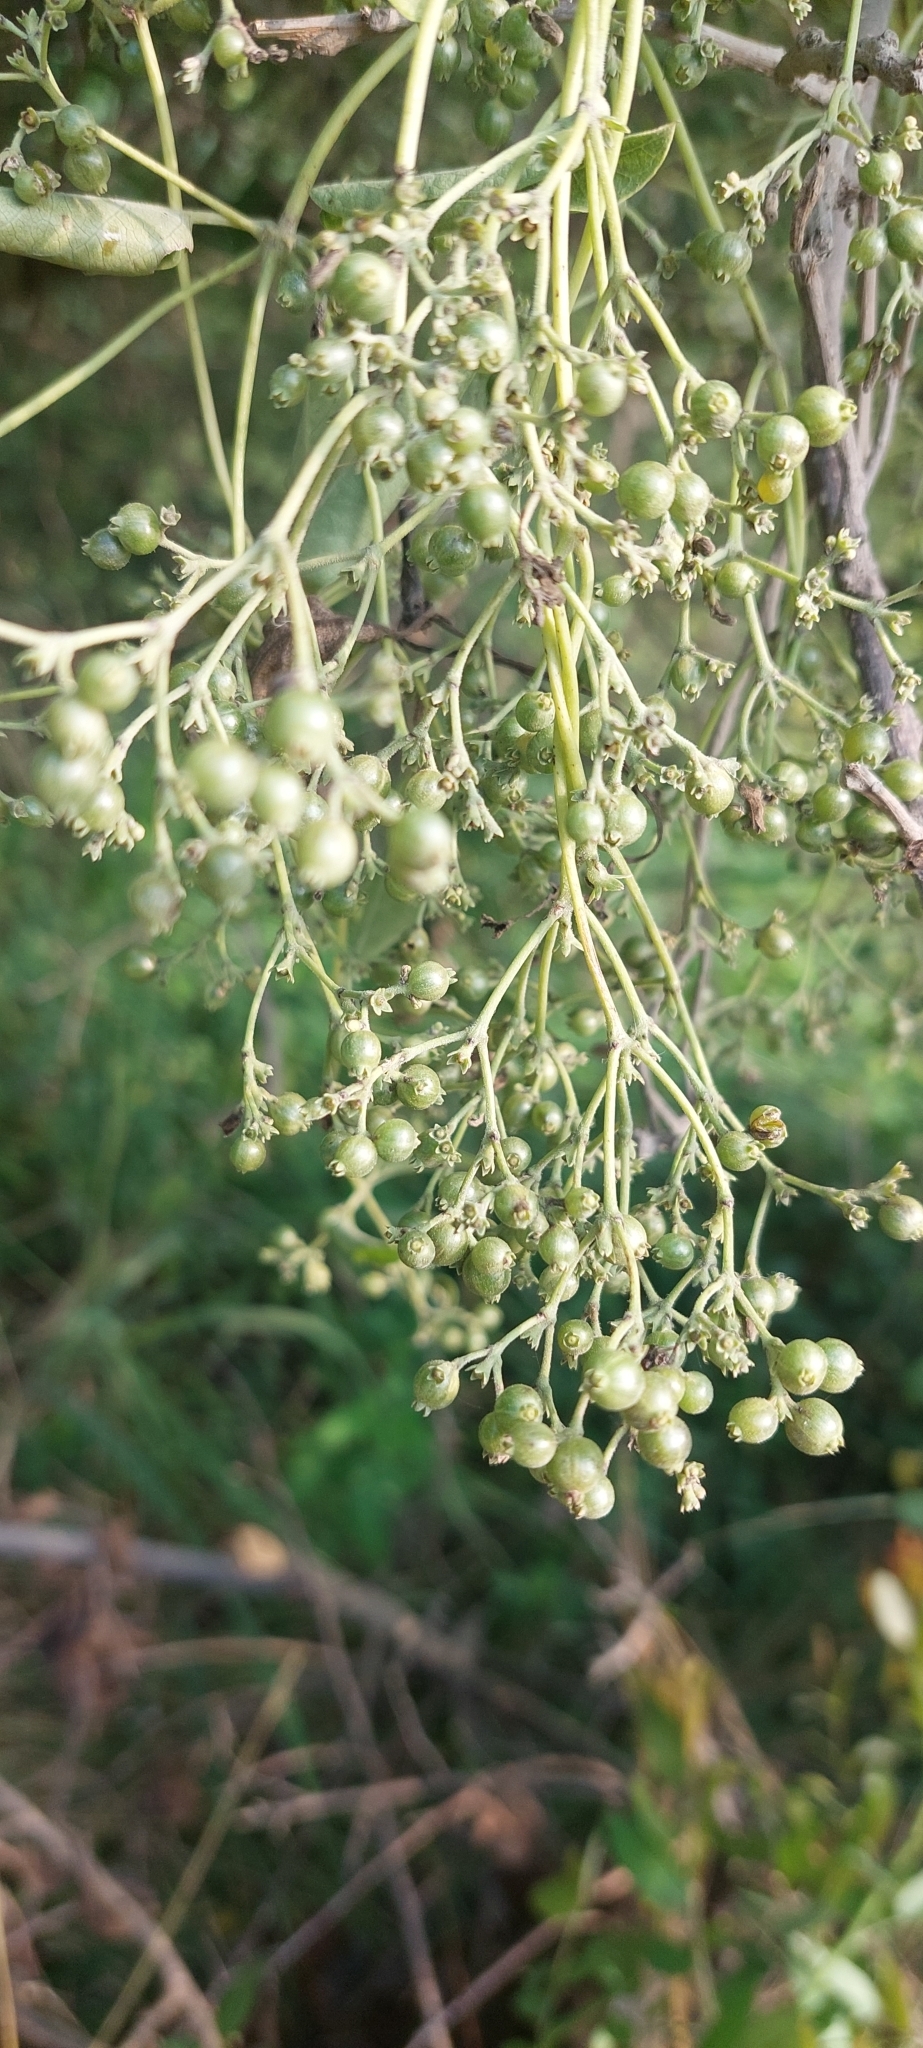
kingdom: Plantae
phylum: Tracheophyta
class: Magnoliopsida
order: Gentianales
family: Rubiaceae
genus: Paederia
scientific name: Paederia foetida
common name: Stinkvine
